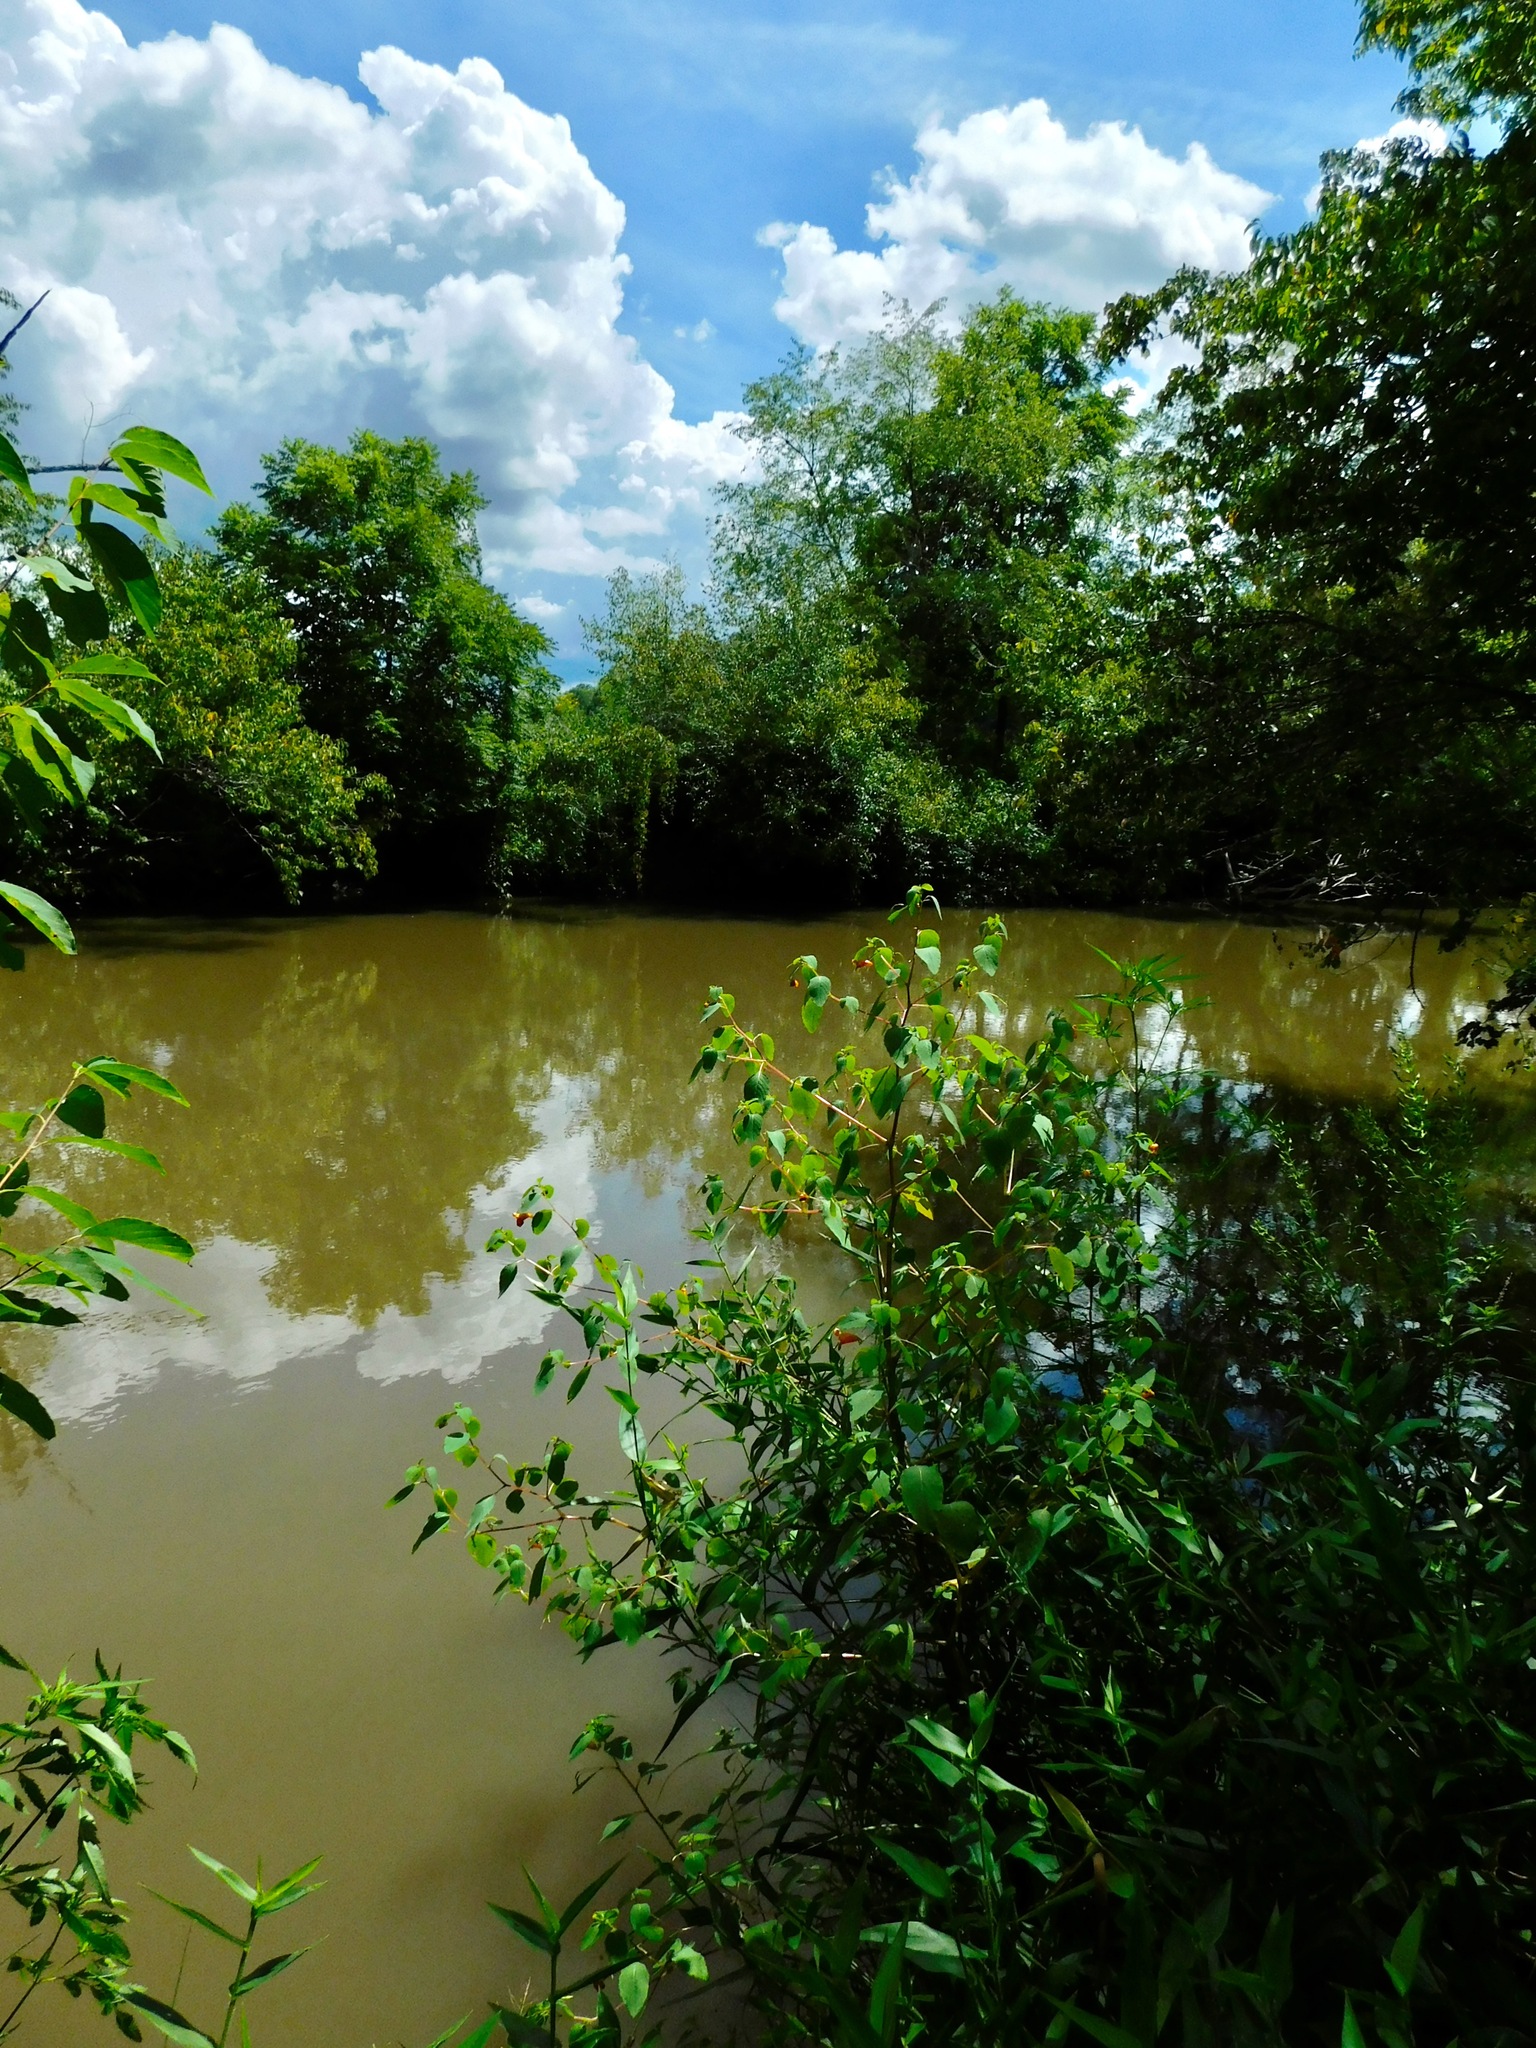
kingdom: Plantae
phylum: Tracheophyta
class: Magnoliopsida
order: Ericales
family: Balsaminaceae
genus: Impatiens
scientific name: Impatiens capensis
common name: Orange balsam
